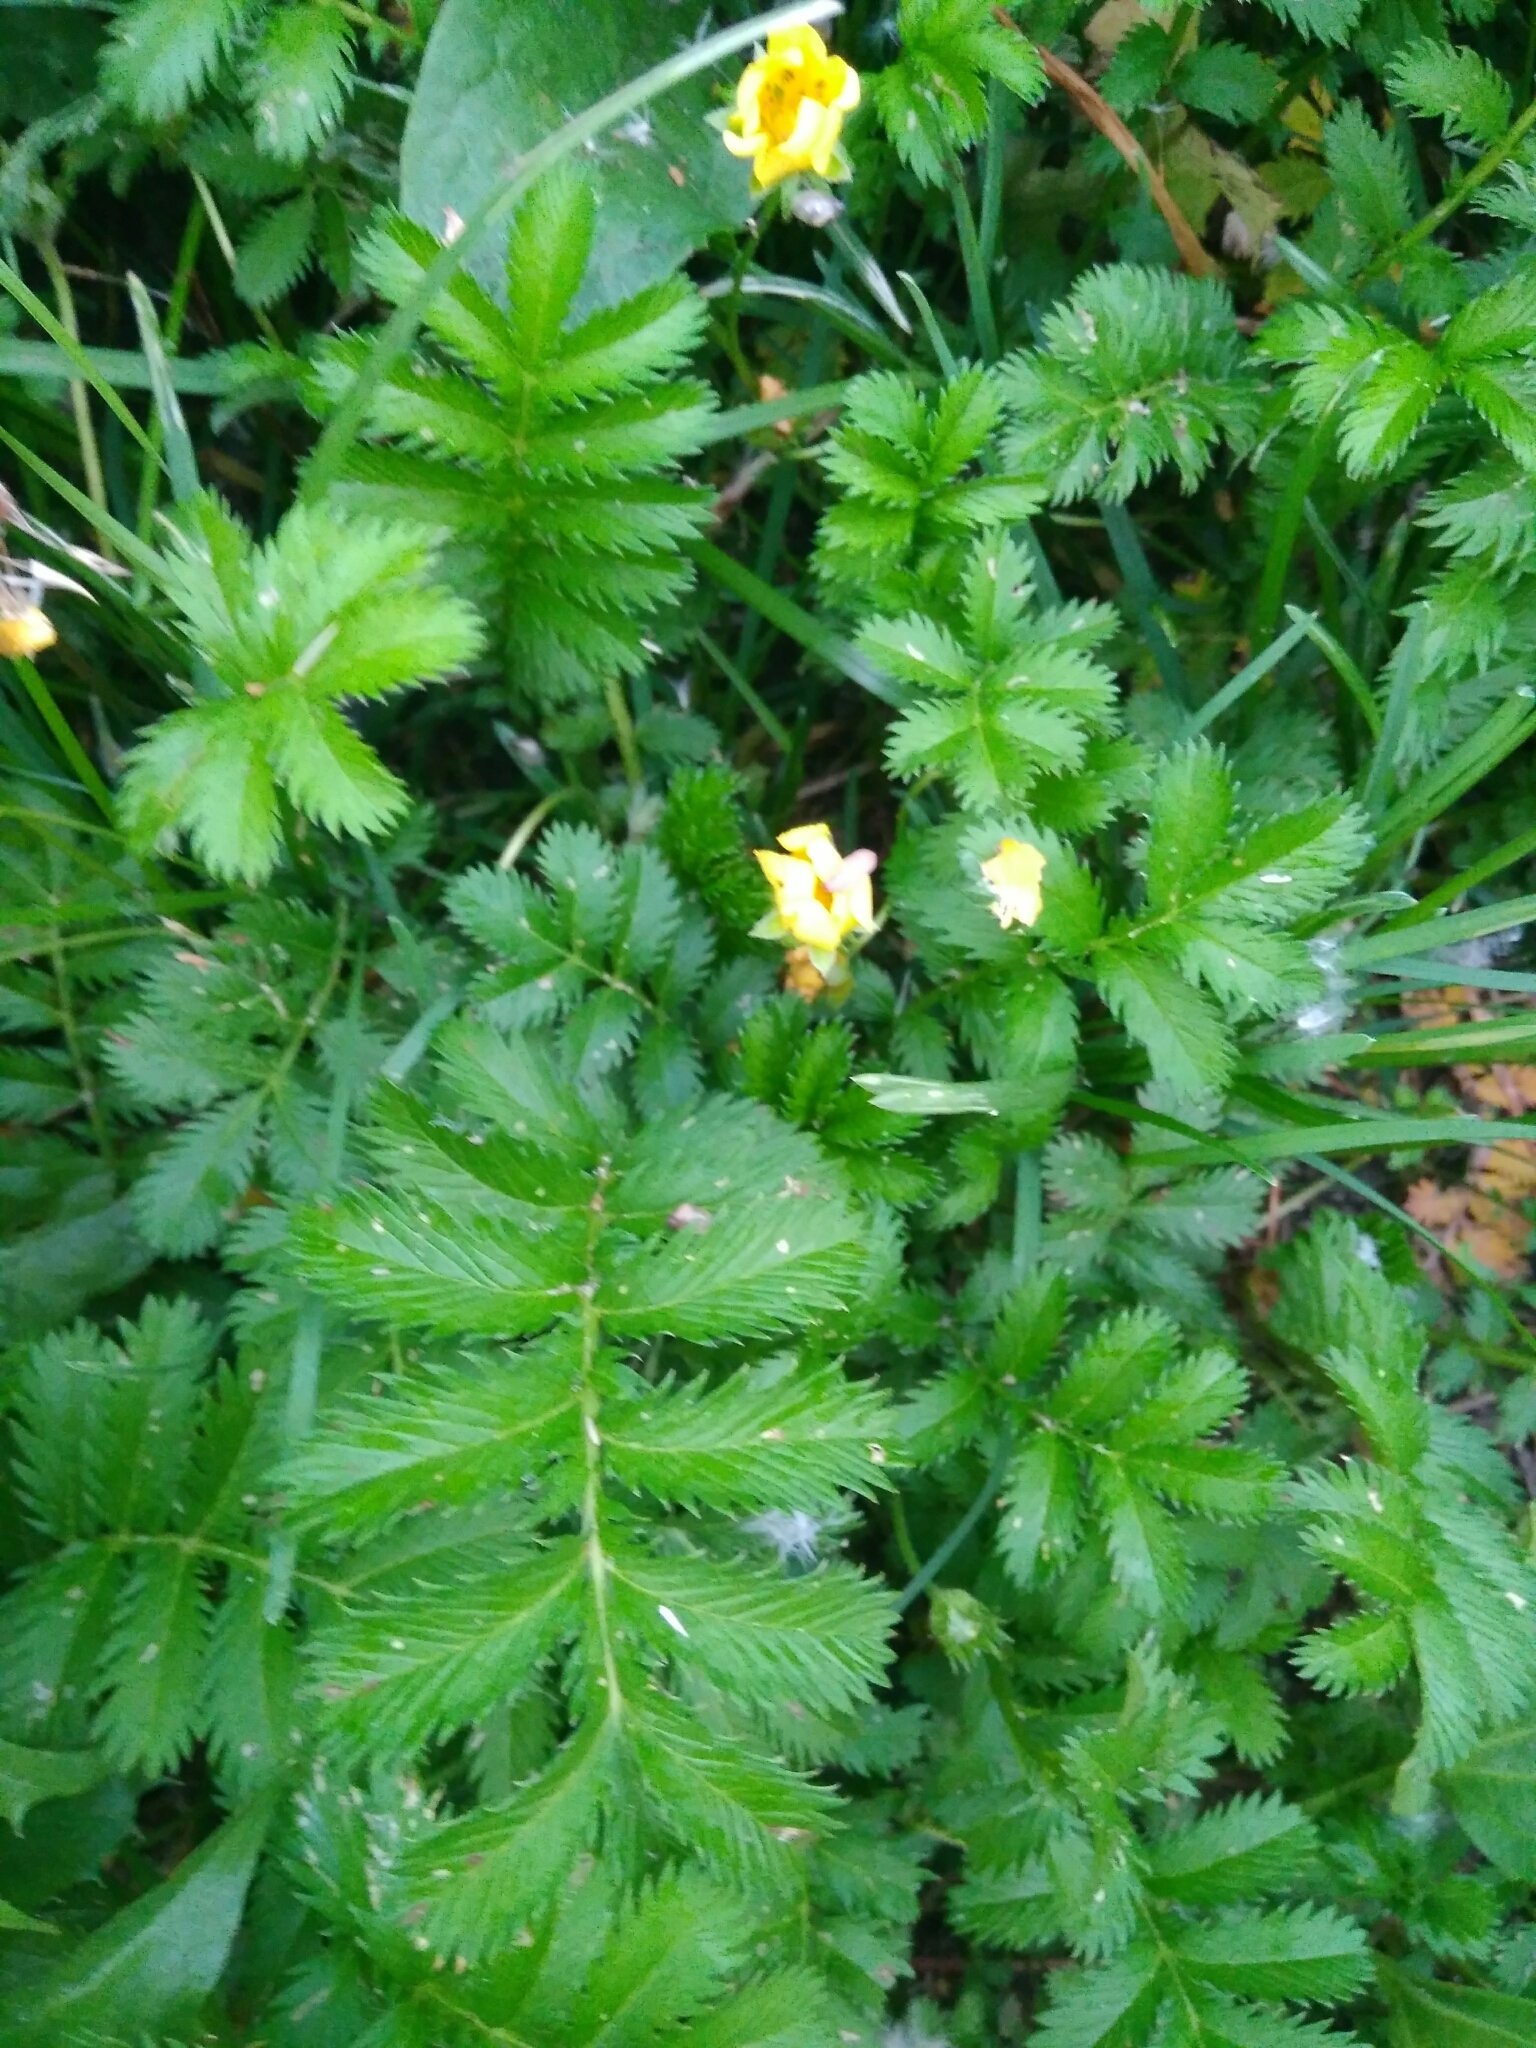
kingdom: Plantae
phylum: Tracheophyta
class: Magnoliopsida
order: Rosales
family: Rosaceae
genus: Argentina
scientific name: Argentina anserina
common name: Common silverweed
